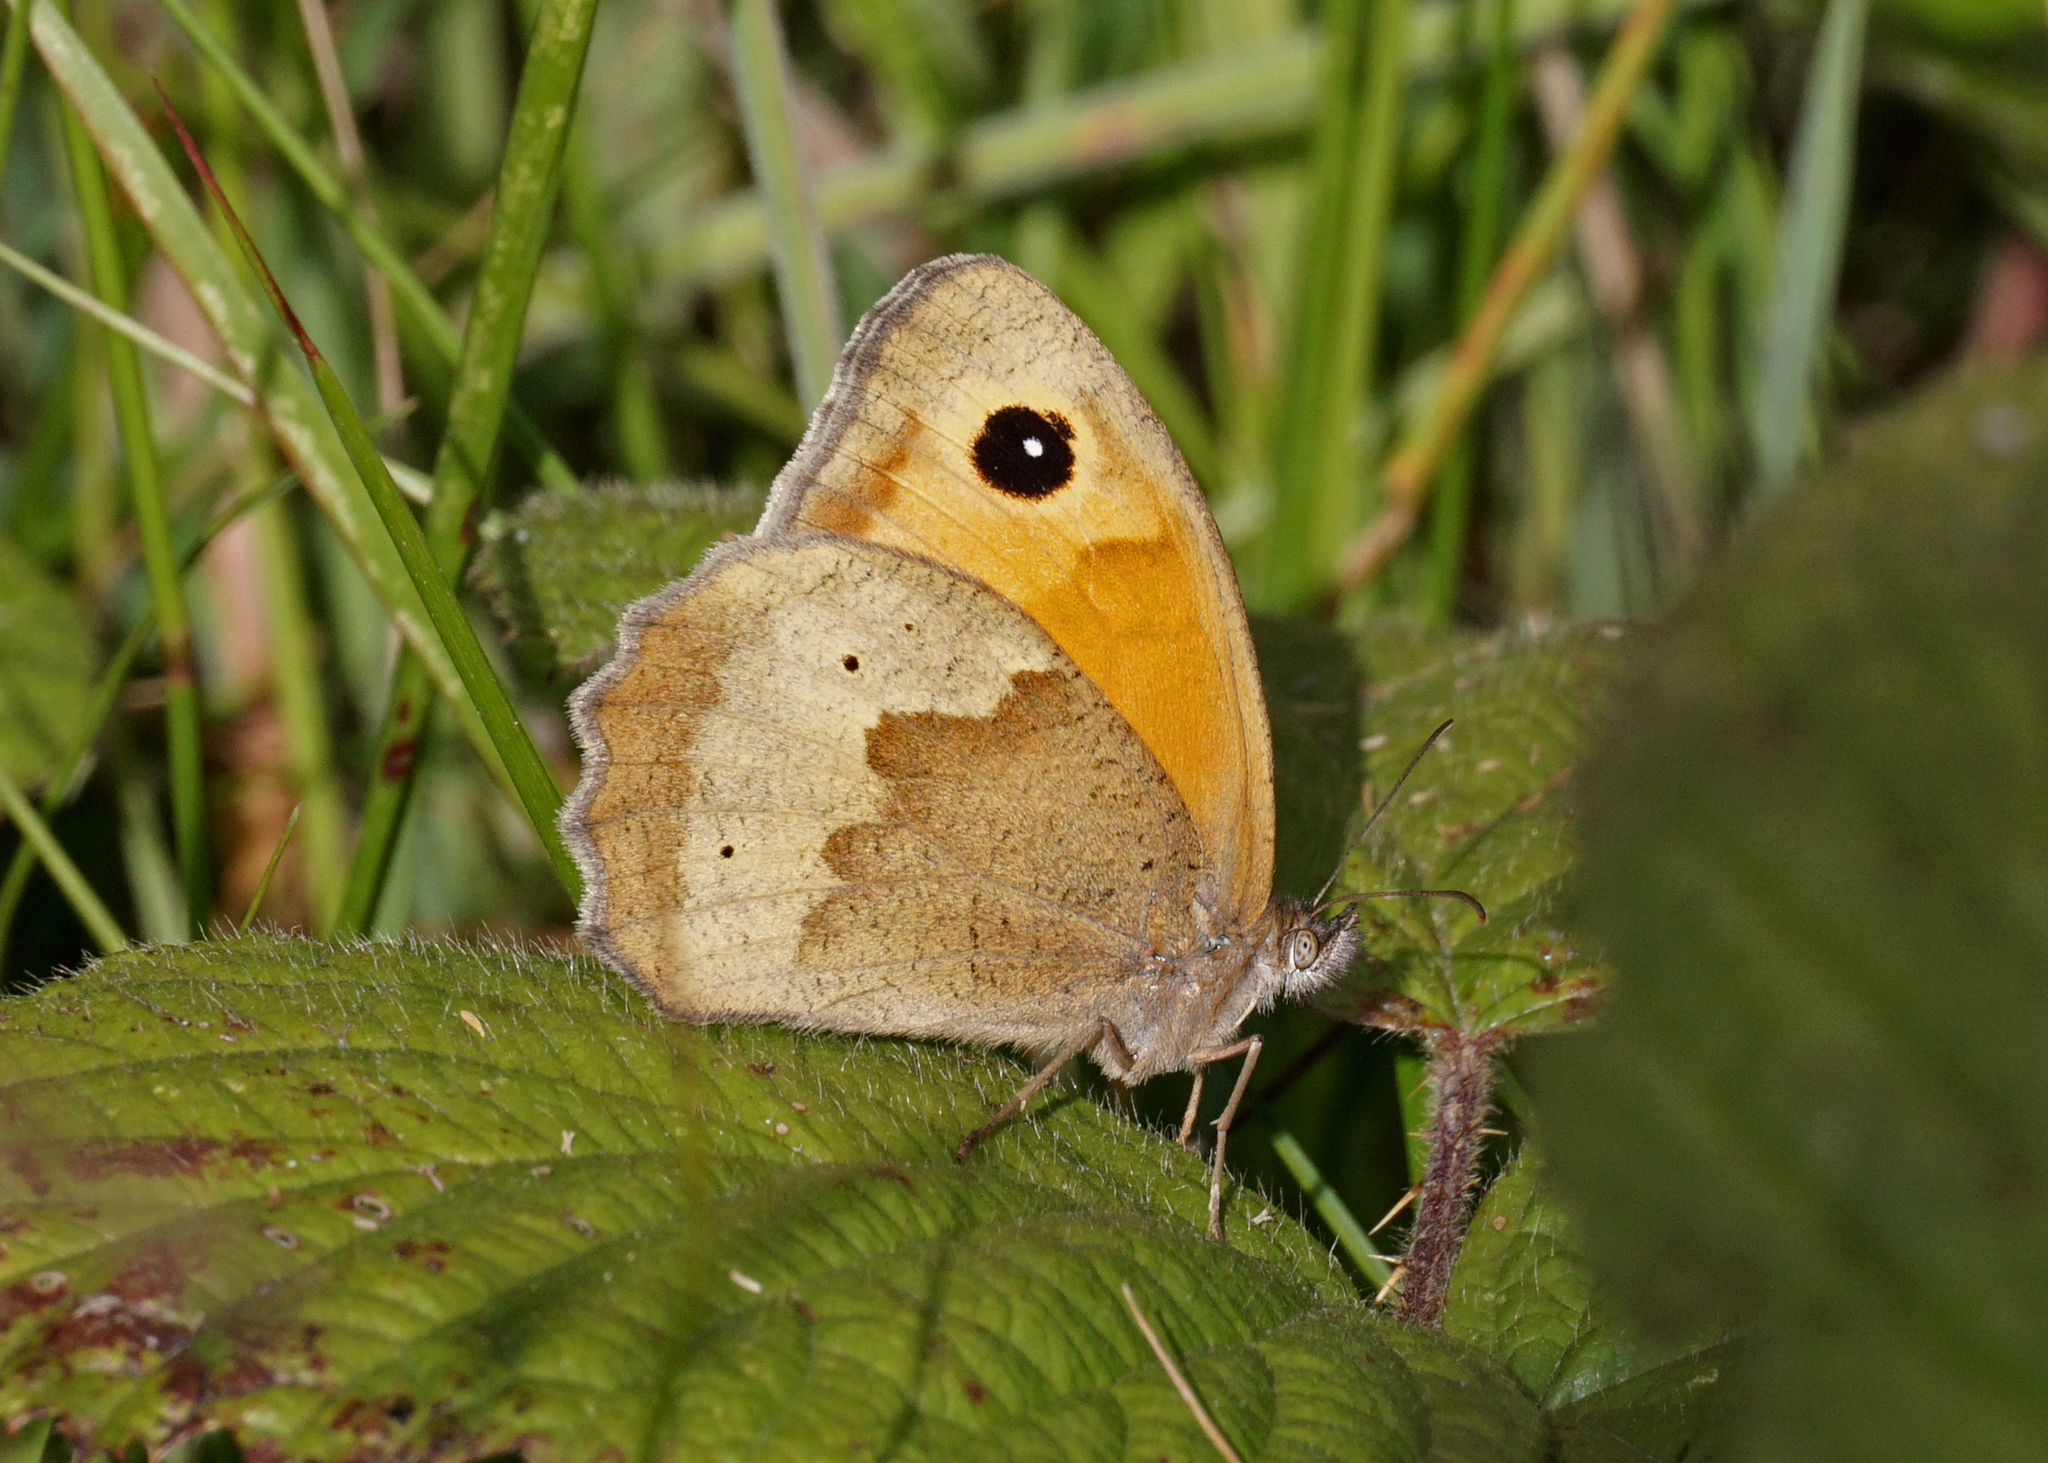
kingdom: Animalia
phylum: Arthropoda
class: Insecta
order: Lepidoptera
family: Nymphalidae
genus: Maniola
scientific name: Maniola jurtina
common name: Meadow brown
